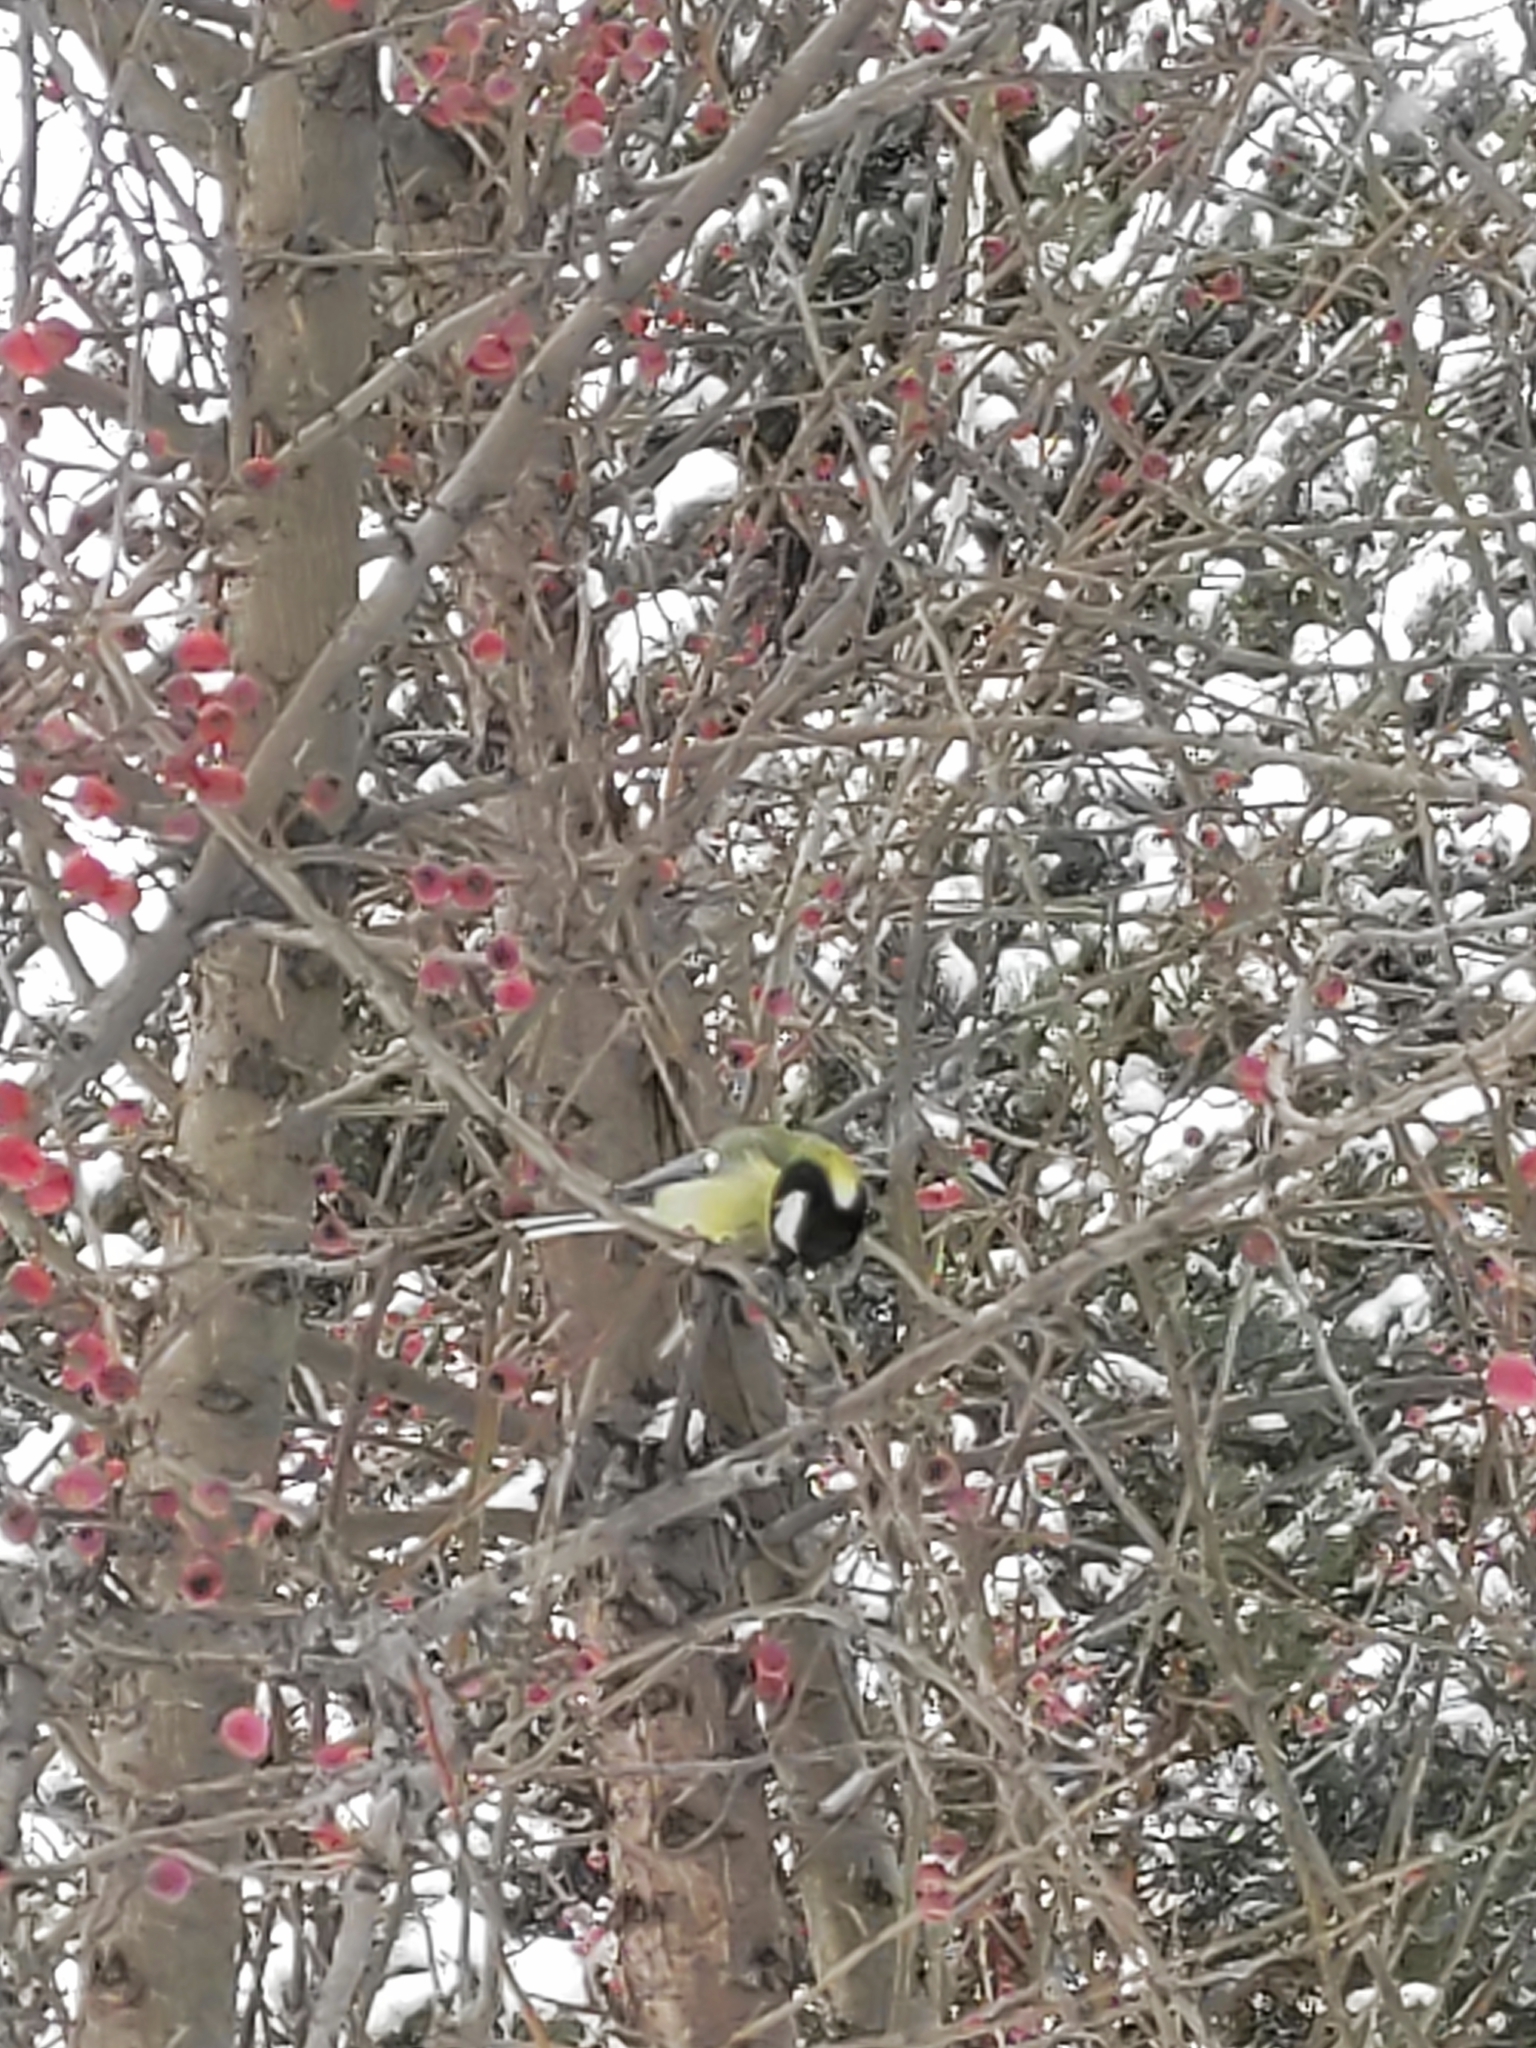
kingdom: Animalia
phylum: Chordata
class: Aves
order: Passeriformes
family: Paridae
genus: Parus
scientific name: Parus major
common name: Great tit
